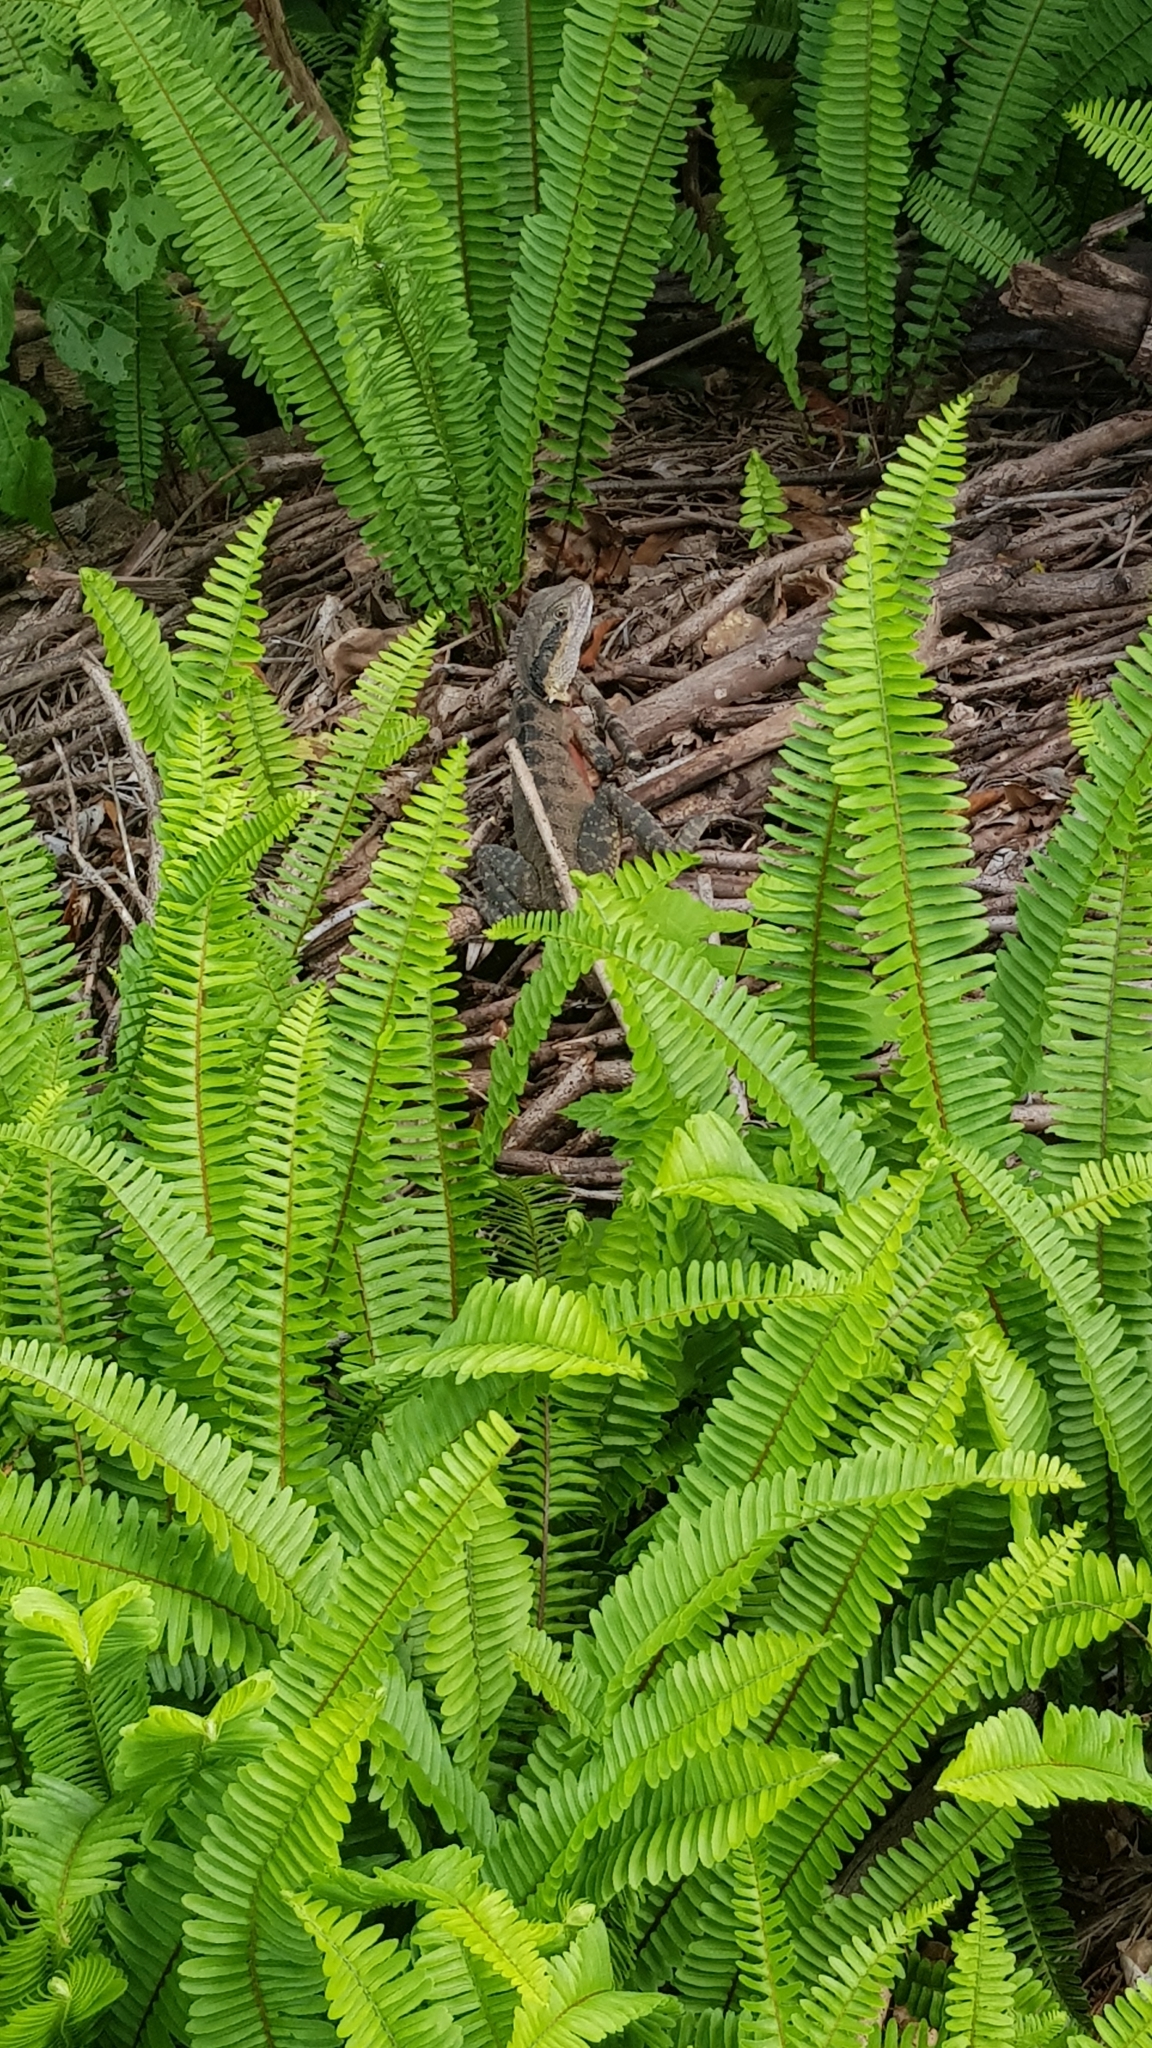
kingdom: Animalia
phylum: Chordata
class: Squamata
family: Agamidae
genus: Intellagama
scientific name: Intellagama lesueurii
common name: Eastern water dragon
